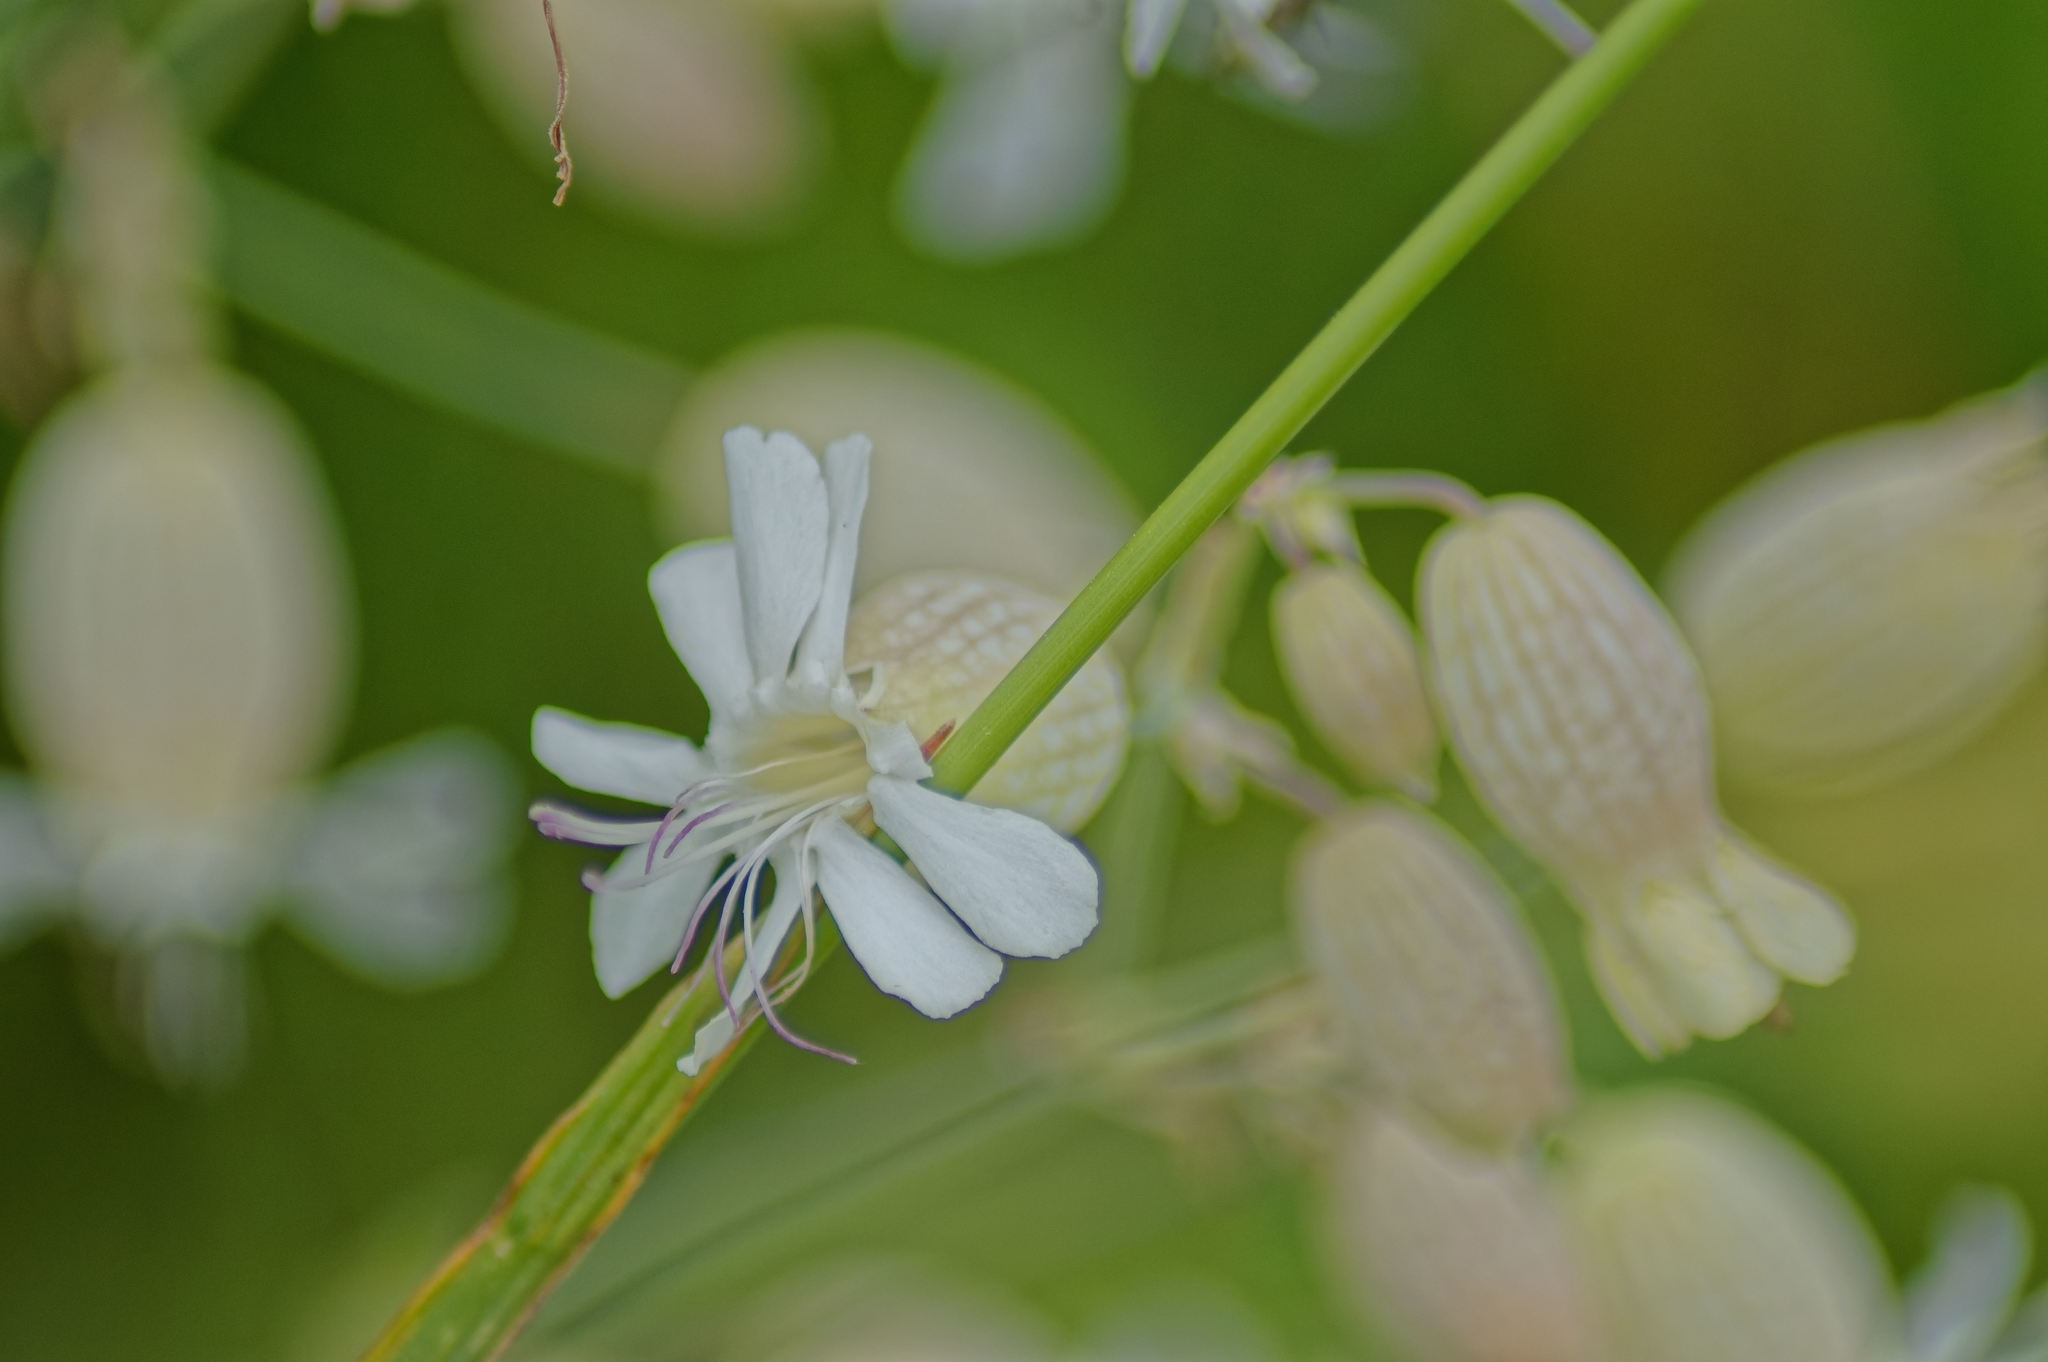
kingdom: Plantae
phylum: Tracheophyta
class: Magnoliopsida
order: Caryophyllales
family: Caryophyllaceae
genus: Silene
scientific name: Silene vulgaris
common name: Bladder campion
